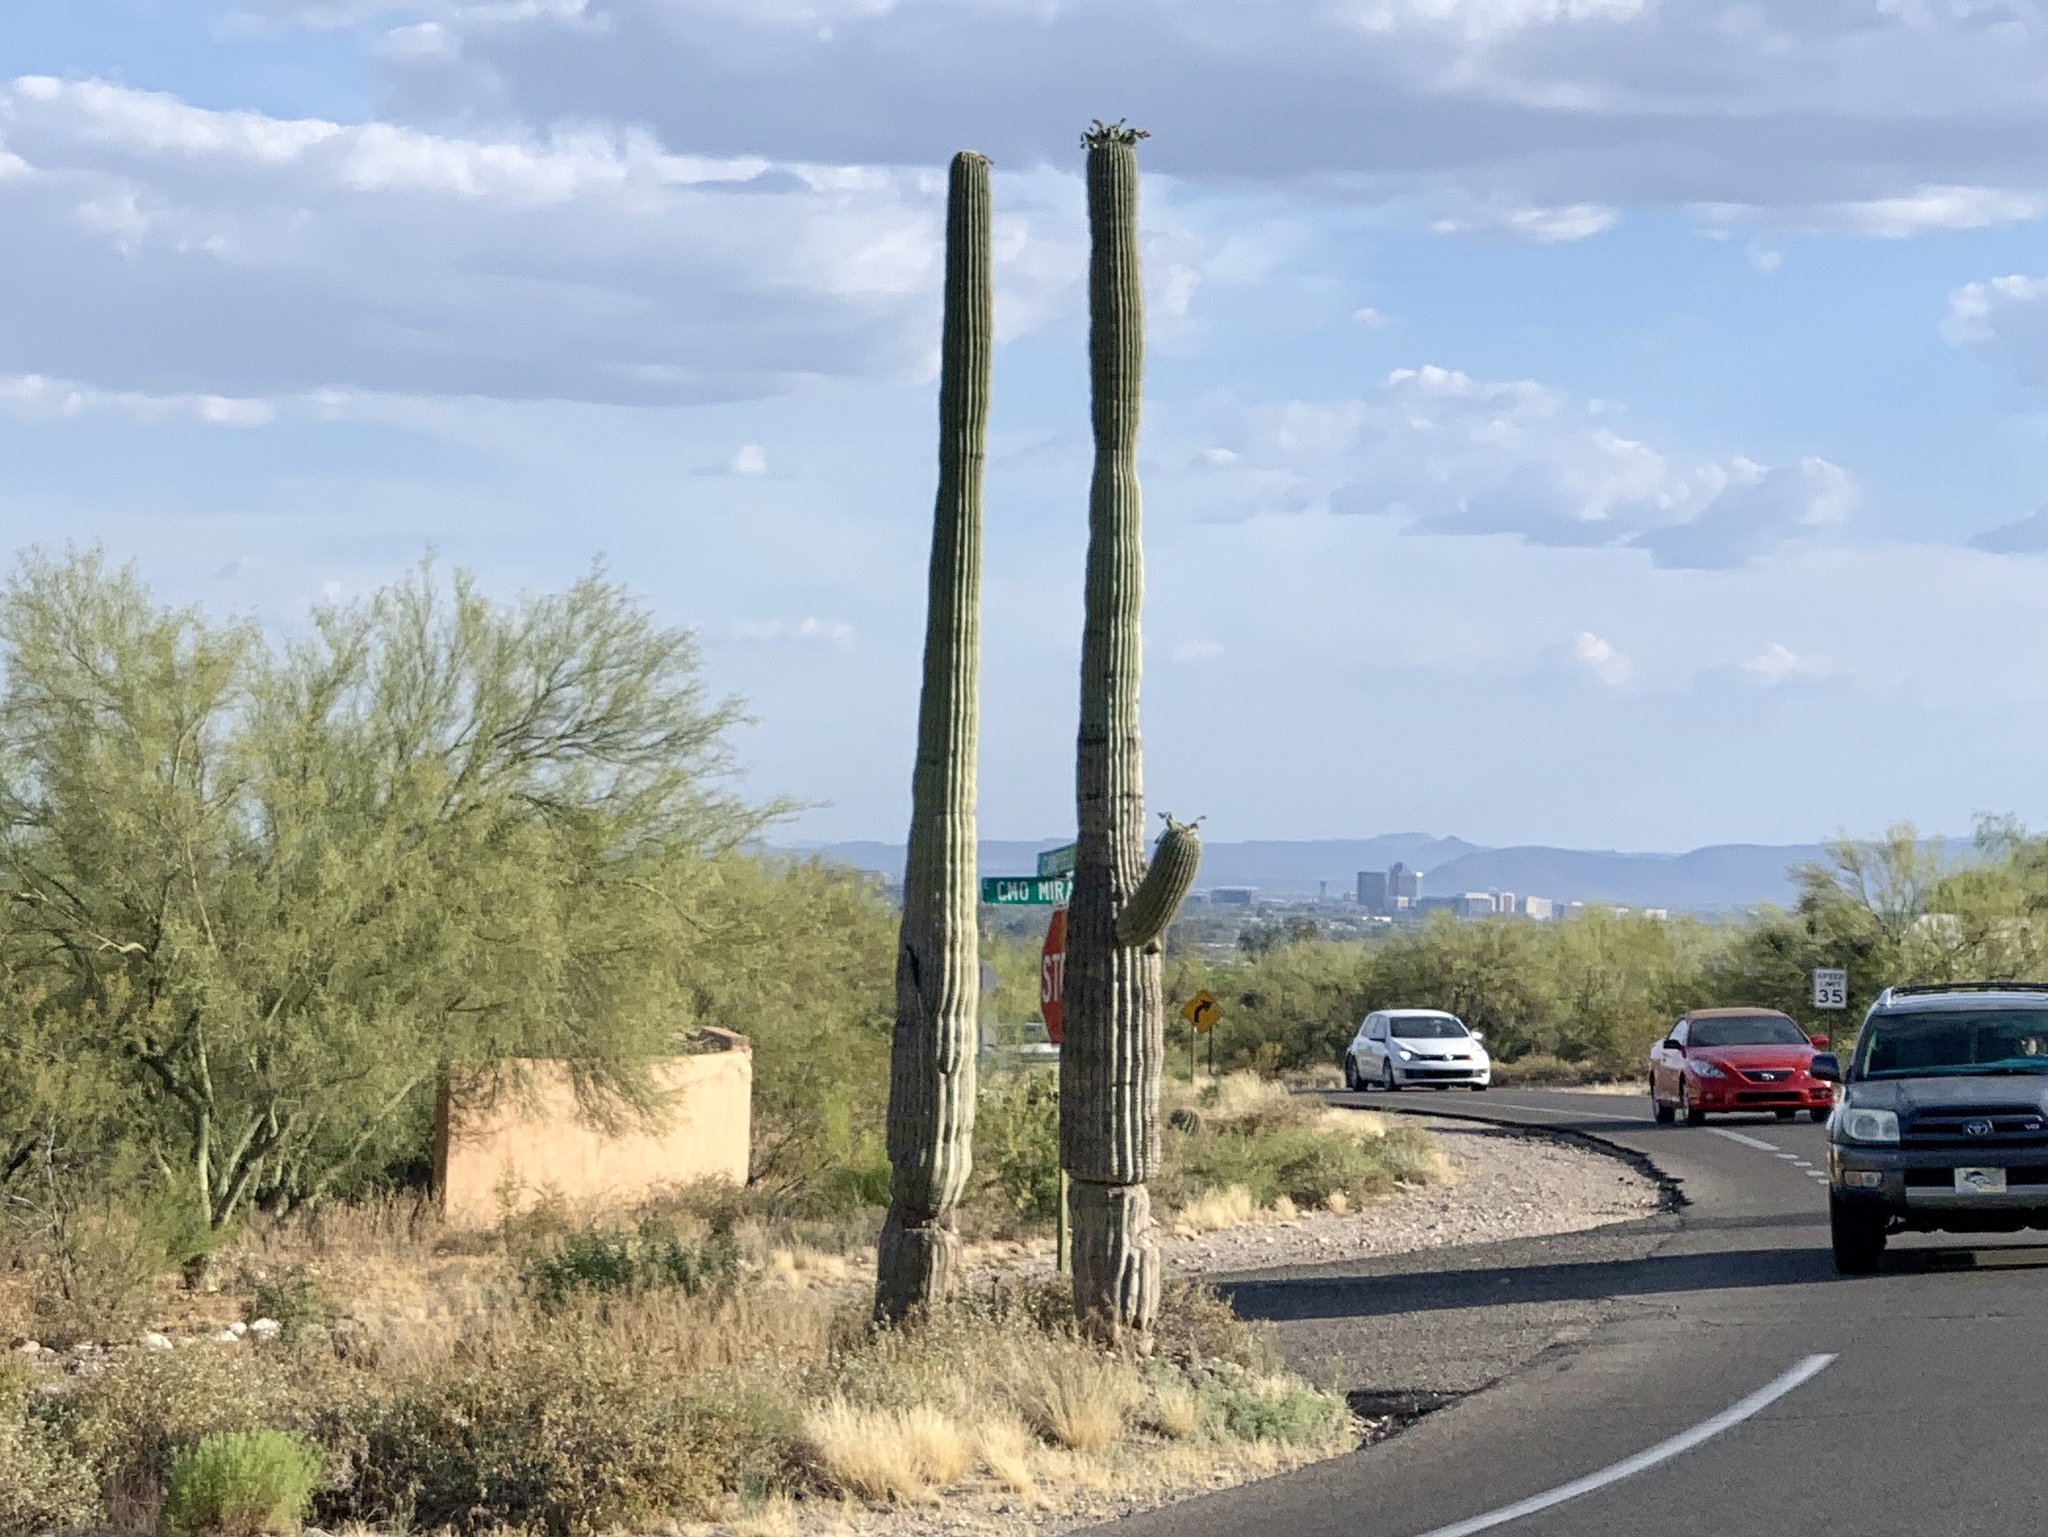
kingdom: Plantae
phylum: Tracheophyta
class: Magnoliopsida
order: Caryophyllales
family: Cactaceae
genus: Carnegiea
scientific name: Carnegiea gigantea
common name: Saguaro
